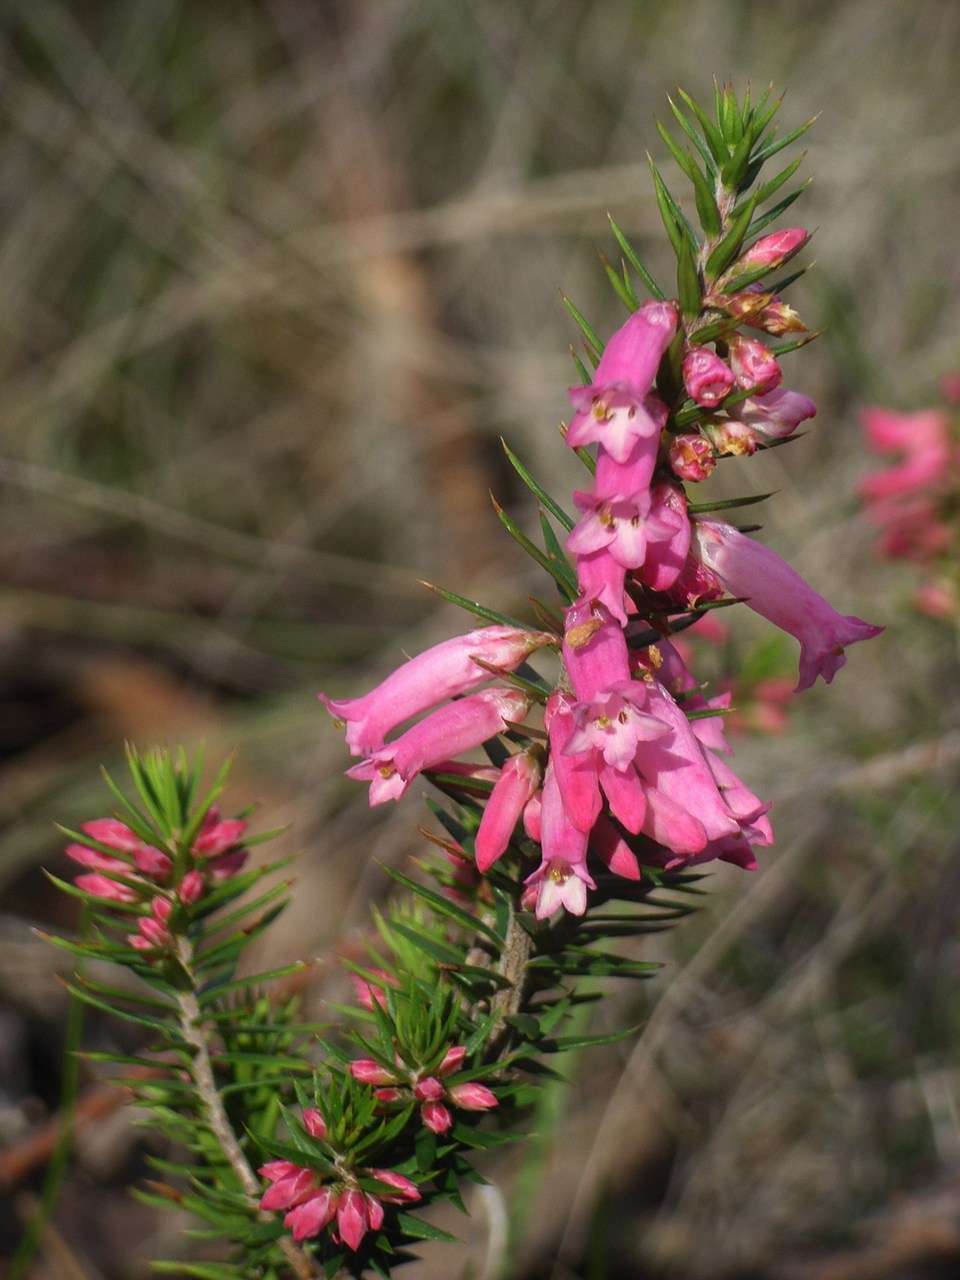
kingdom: Plantae
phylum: Tracheophyta
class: Magnoliopsida
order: Ericales
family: Ericaceae
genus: Epacris
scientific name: Epacris impressa
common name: Common-heath
